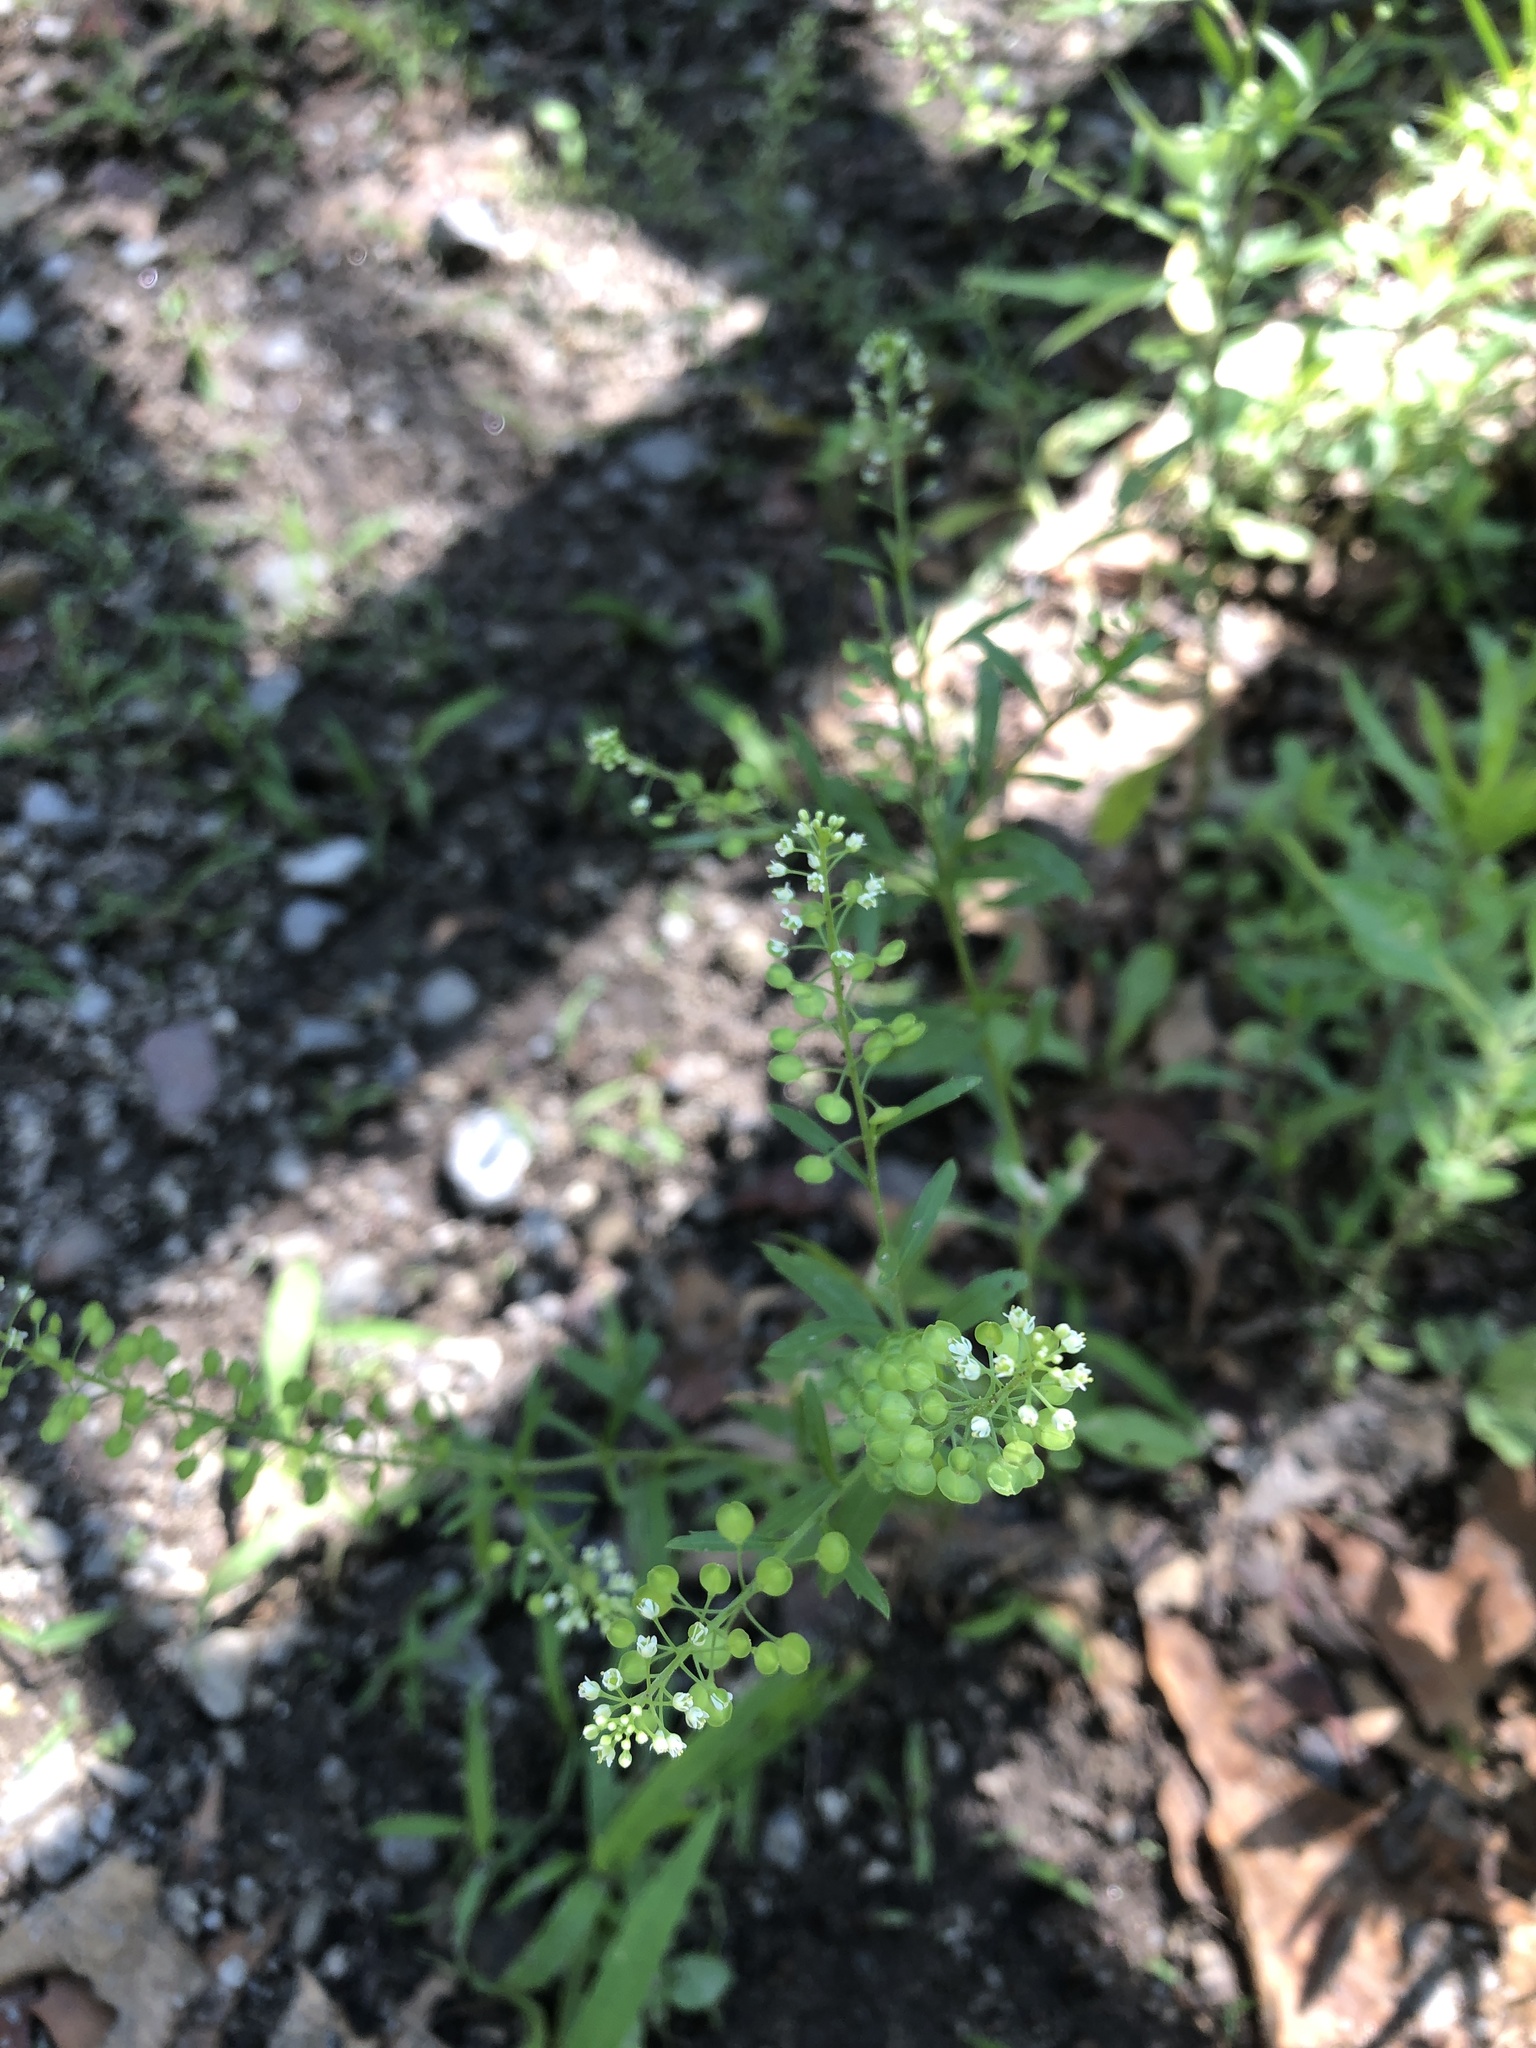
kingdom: Plantae
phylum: Tracheophyta
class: Magnoliopsida
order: Brassicales
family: Brassicaceae
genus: Lepidium
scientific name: Lepidium virginicum
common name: Least pepperwort
